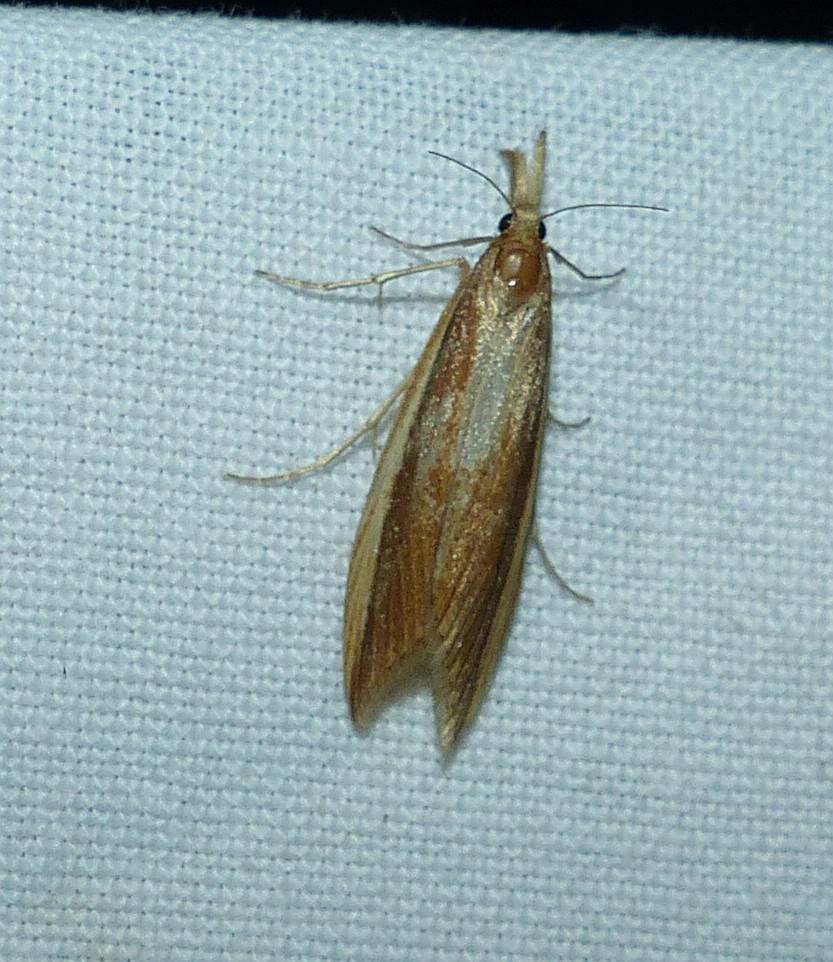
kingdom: Animalia
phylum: Arthropoda
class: Insecta
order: Lepidoptera
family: Crambidae
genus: Donacaula
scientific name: Donacaula melinellus
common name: Delightful donacaula moth
